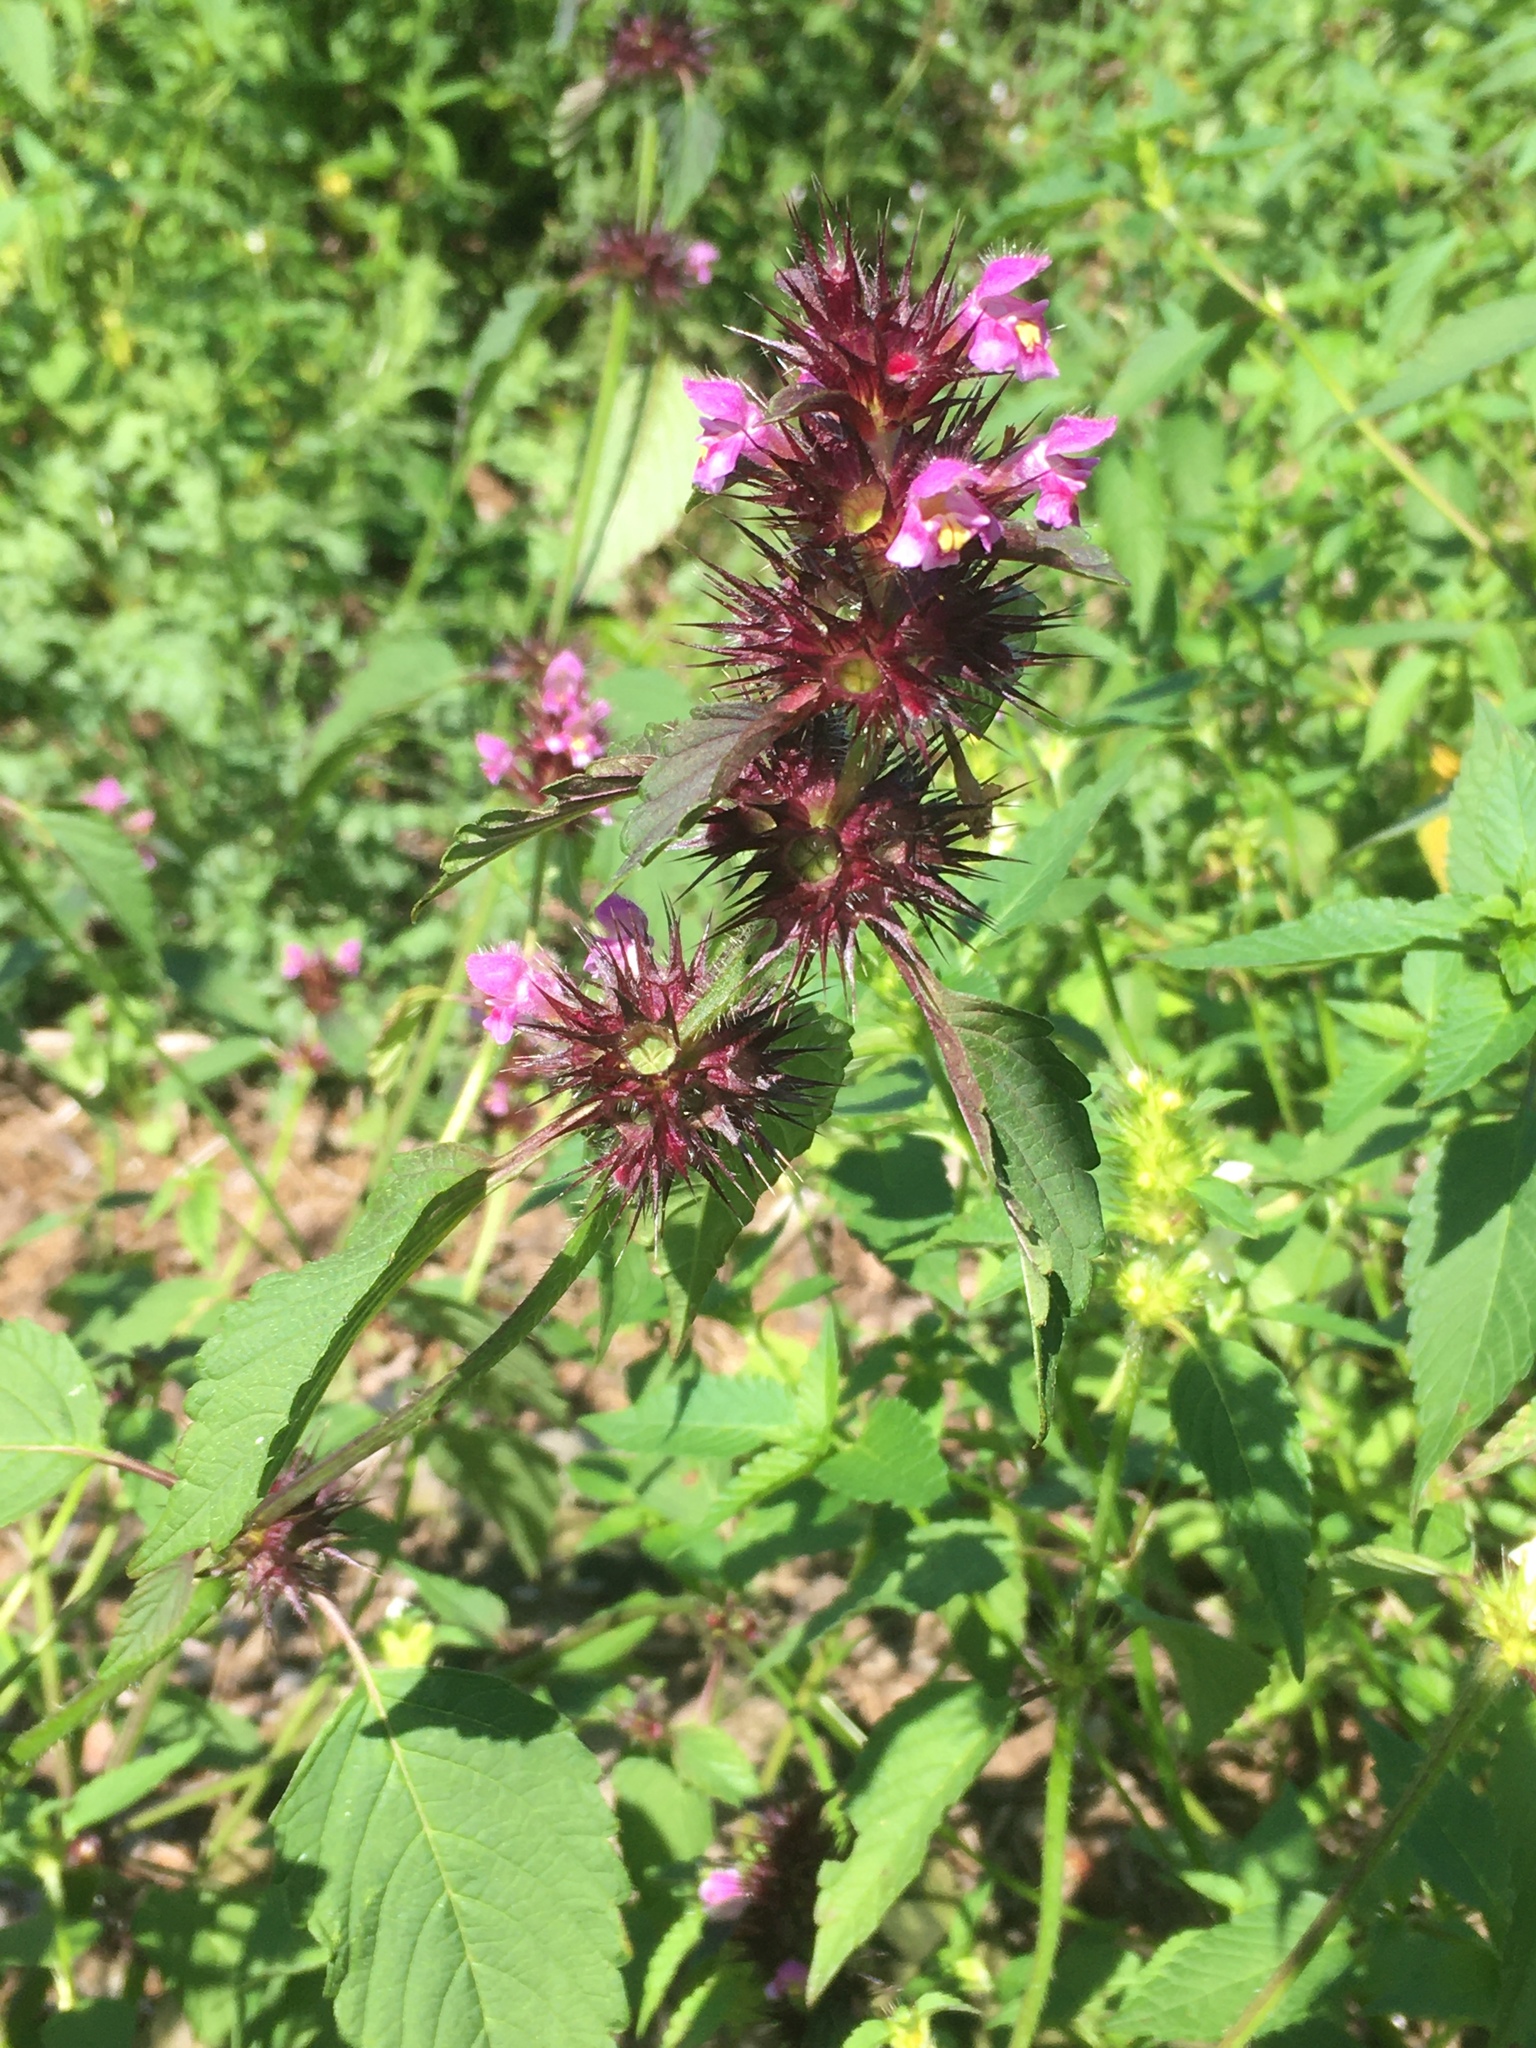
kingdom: Plantae
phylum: Tracheophyta
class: Magnoliopsida
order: Lamiales
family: Lamiaceae
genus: Galeopsis
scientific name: Galeopsis tetrahit
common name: Common hemp-nettle
